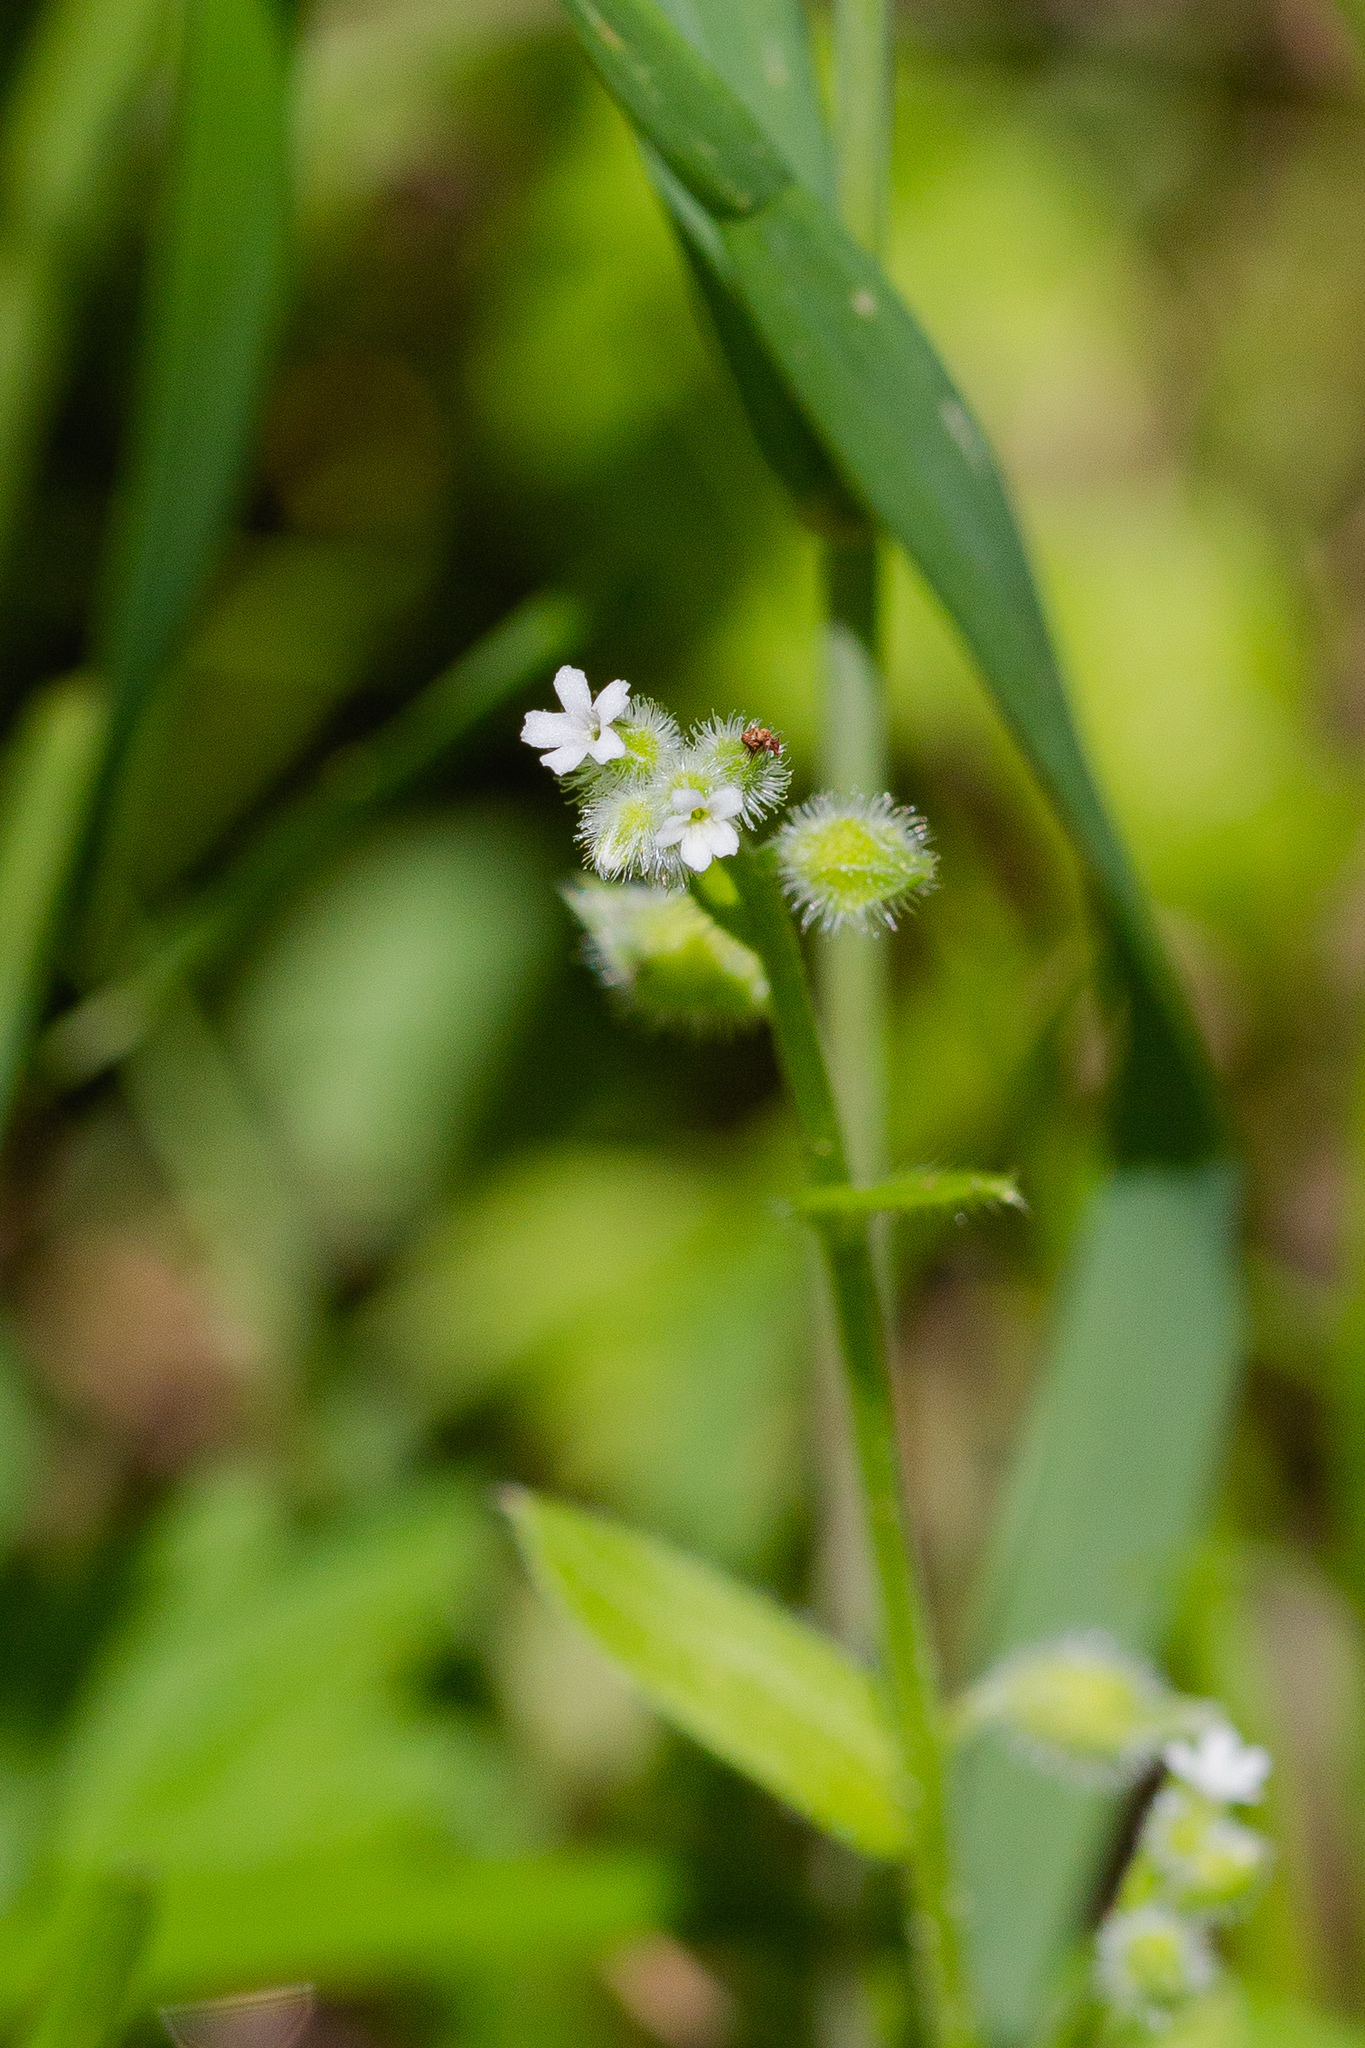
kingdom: Plantae
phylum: Tracheophyta
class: Magnoliopsida
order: Boraginales
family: Boraginaceae
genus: Myosotis
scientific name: Myosotis macrosperma
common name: Large-seed forget-me-not
